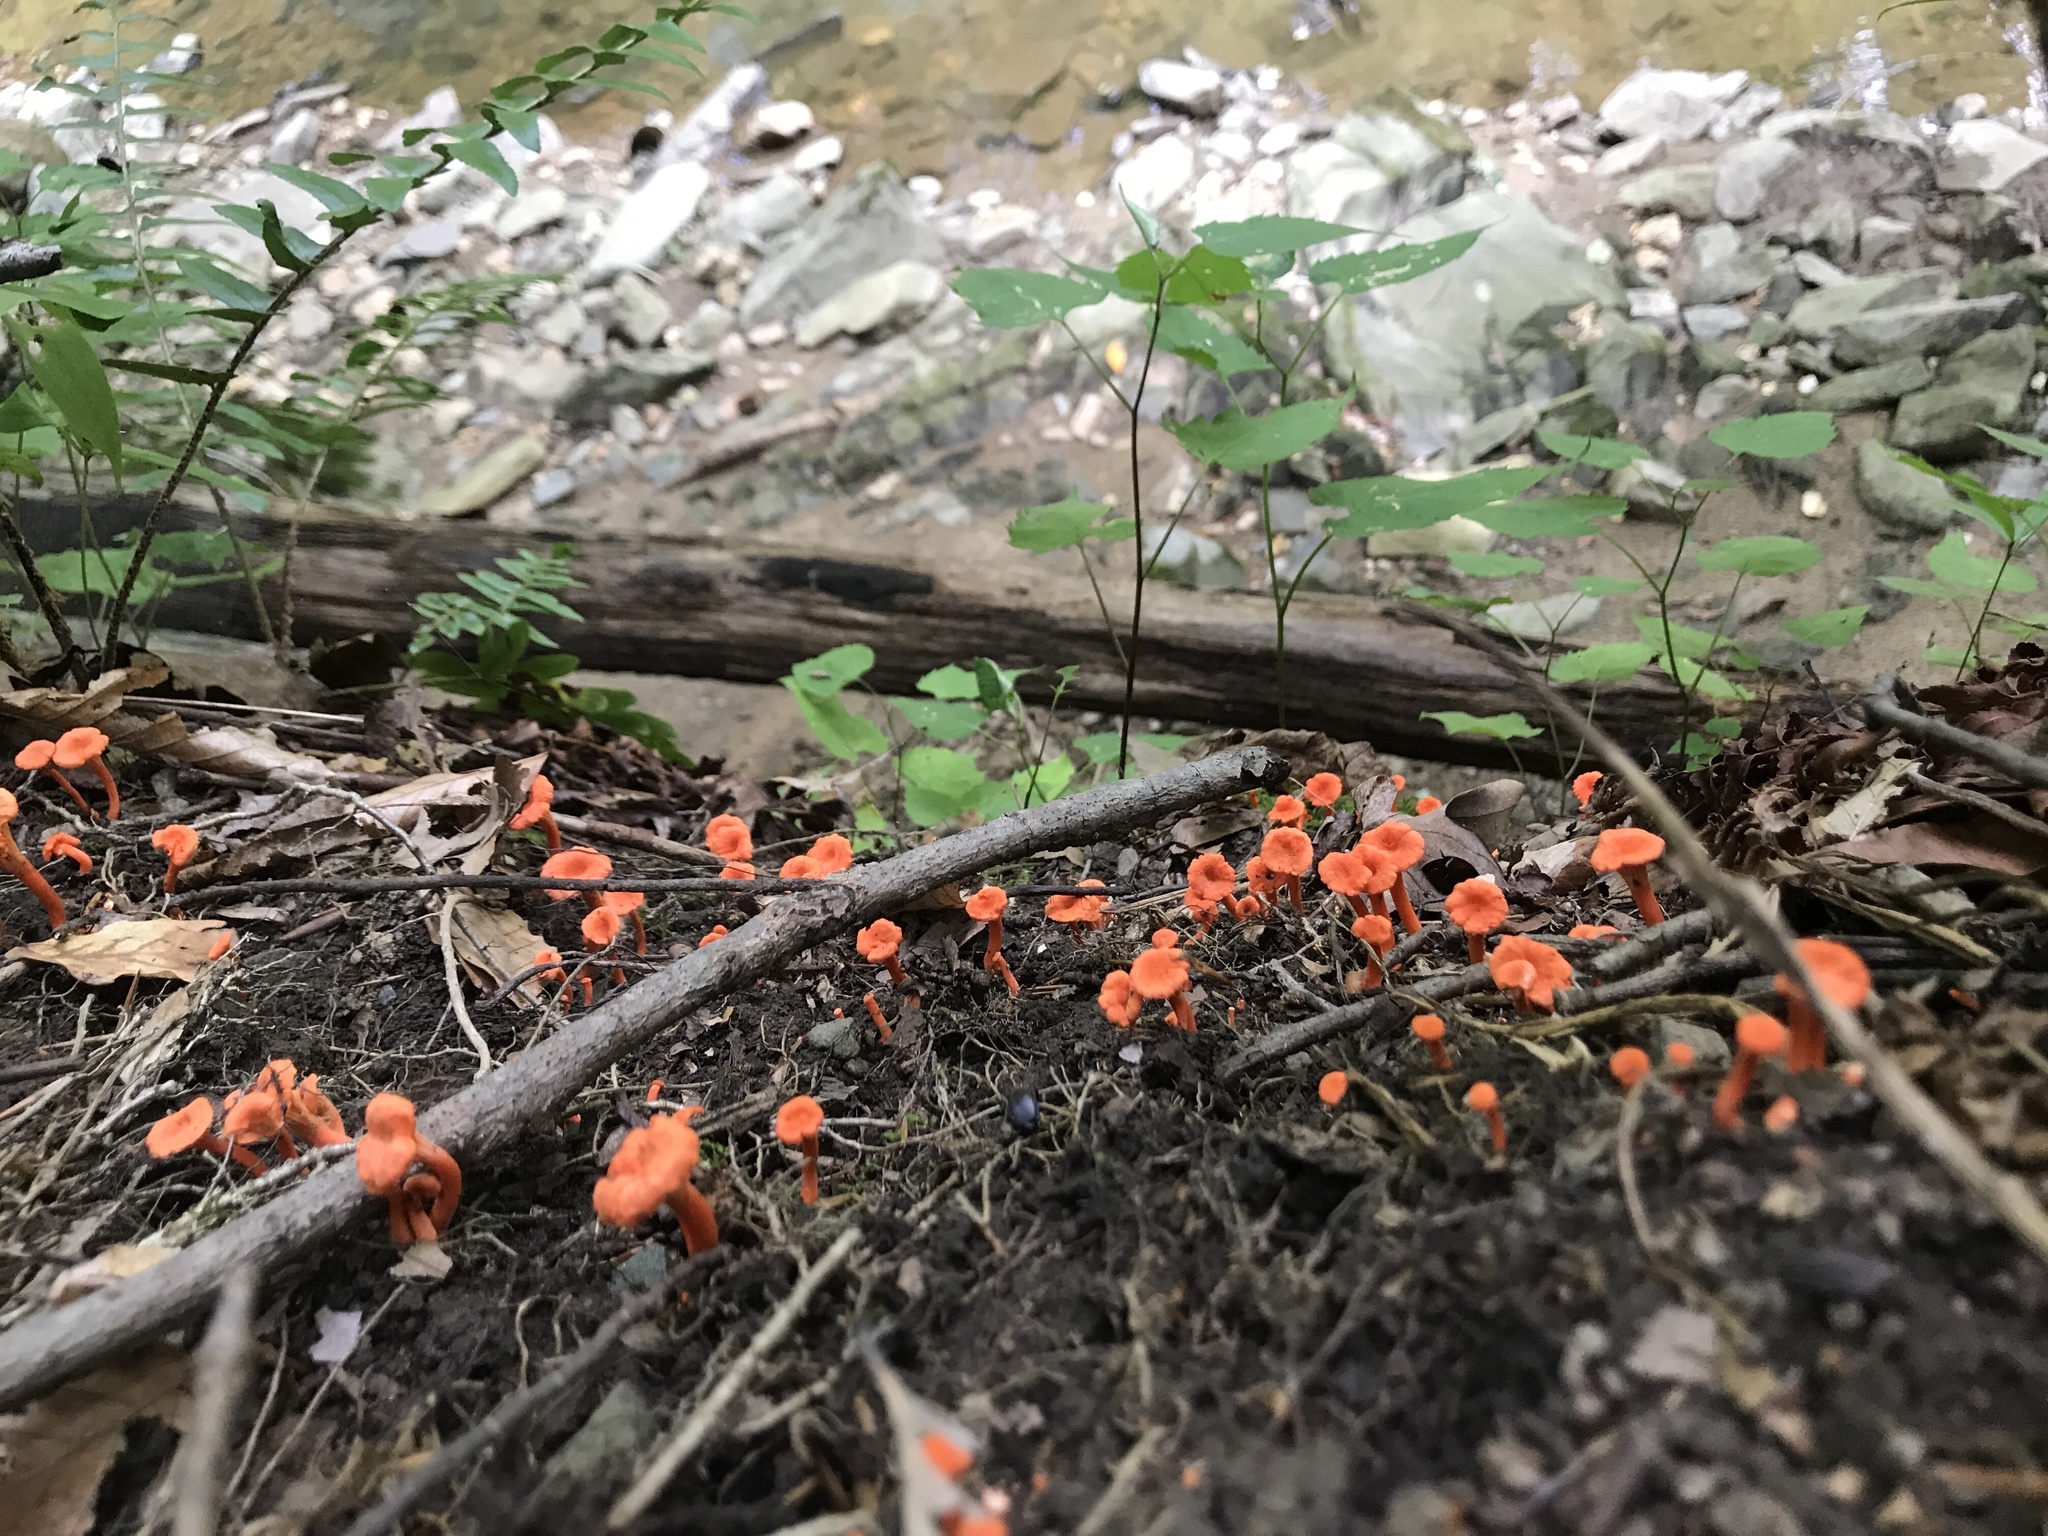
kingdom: Fungi
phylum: Basidiomycota
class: Agaricomycetes
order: Cantharellales
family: Hydnaceae
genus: Cantharellus
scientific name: Cantharellus cinnabarinus
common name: Cinnabar chanterelle
